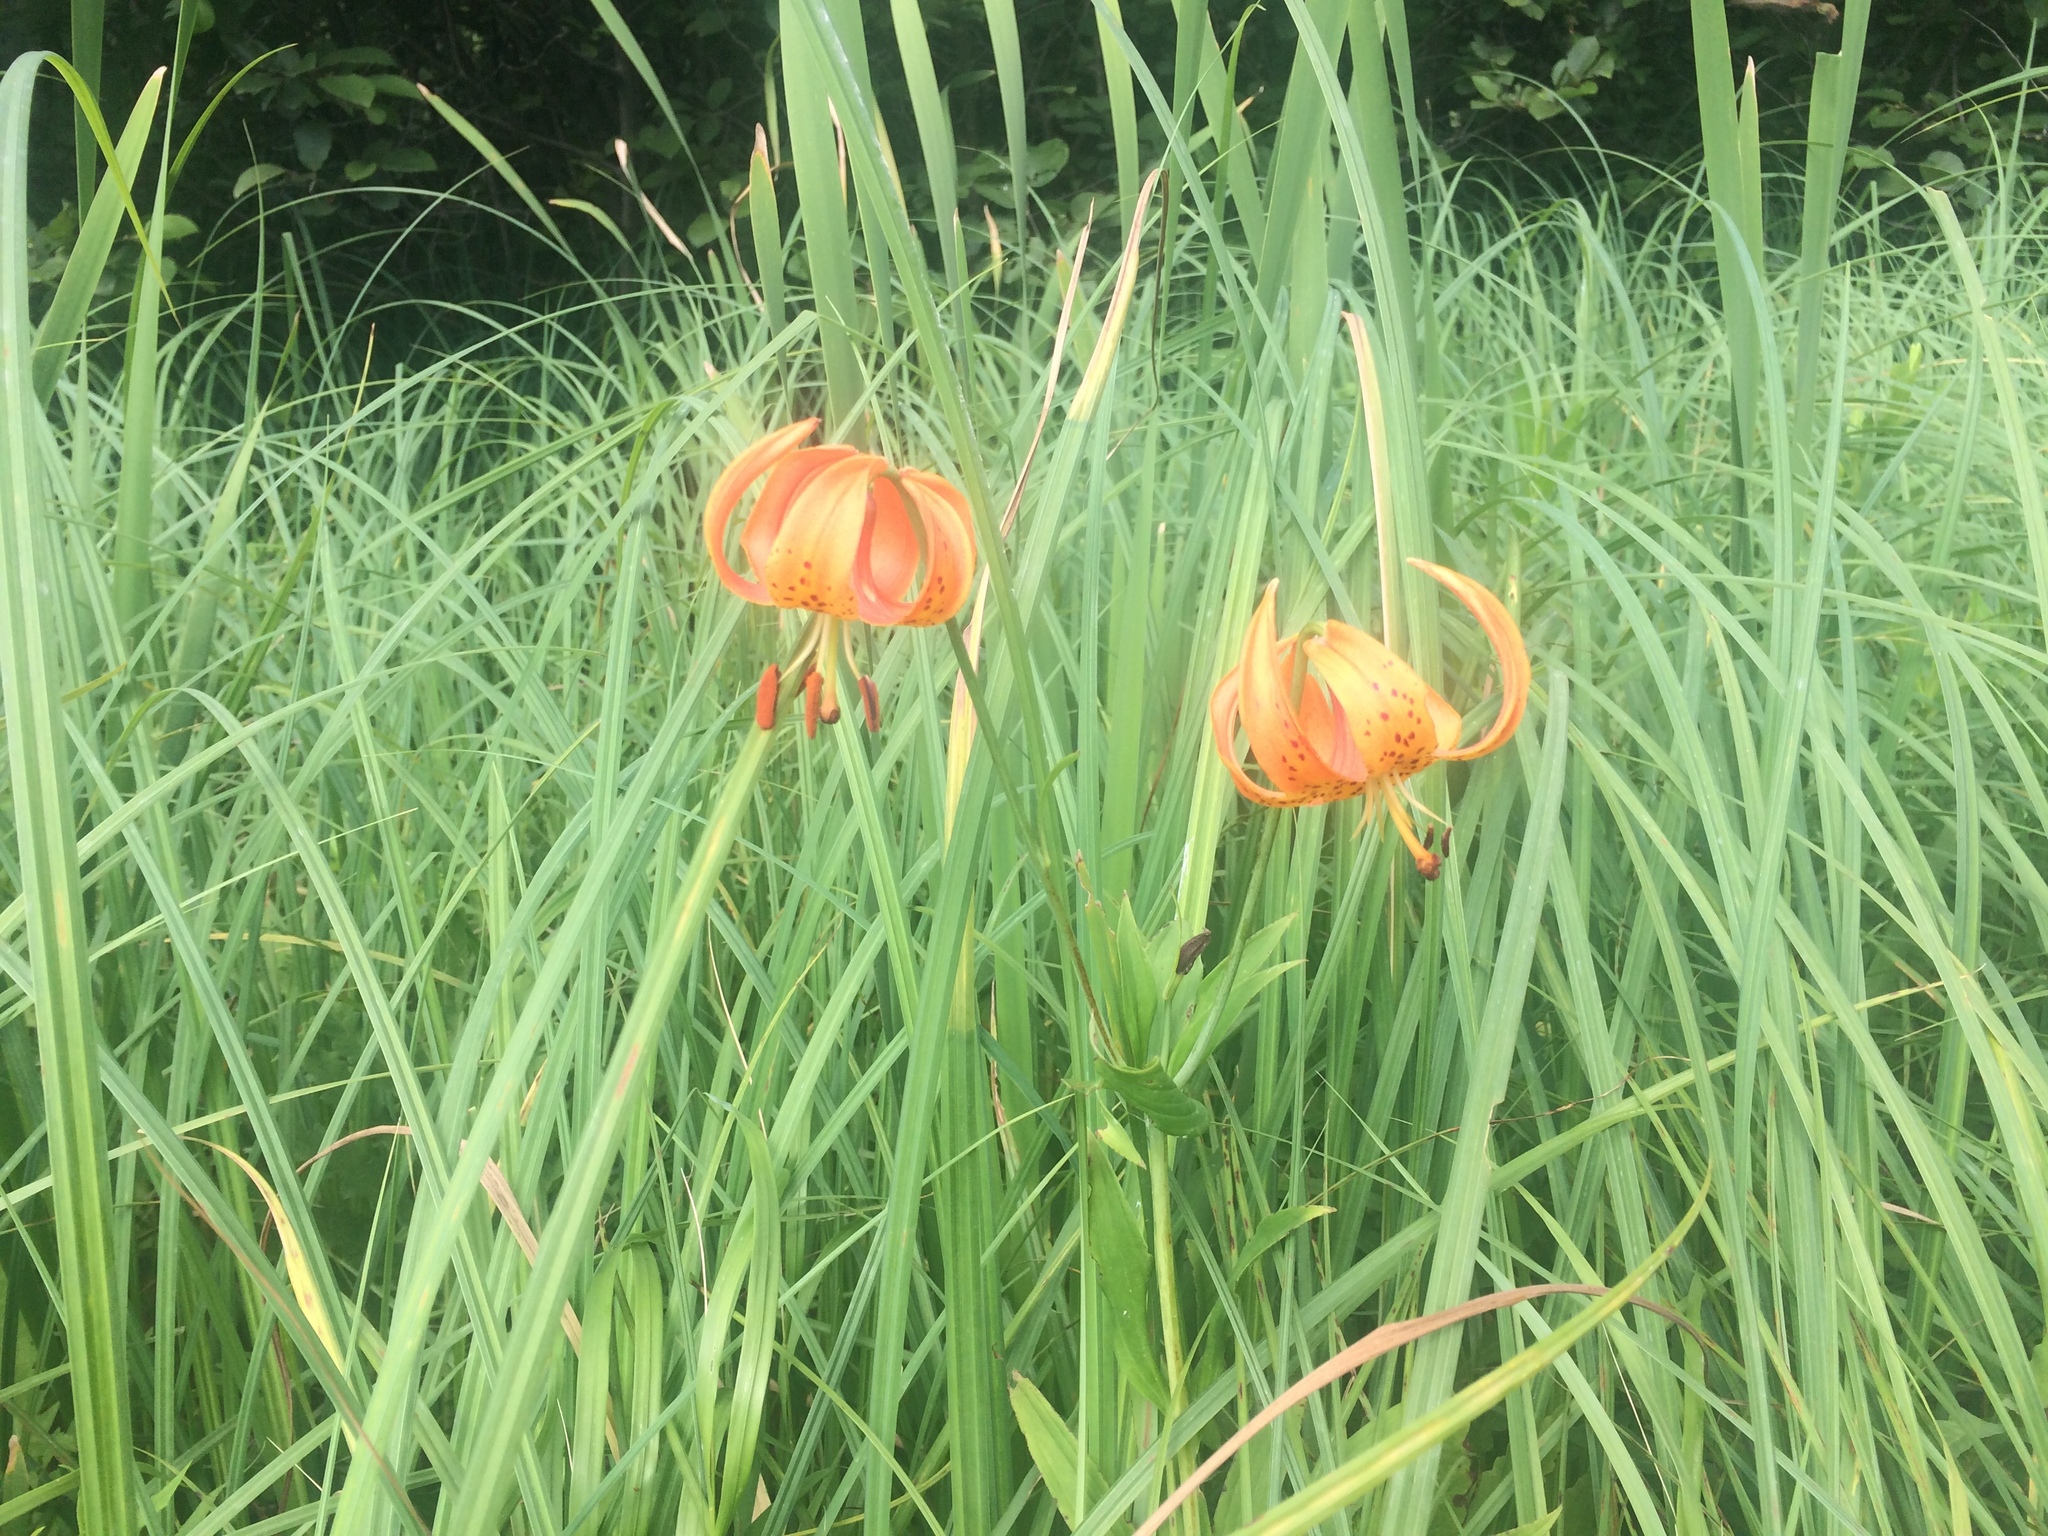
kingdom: Plantae
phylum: Tracheophyta
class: Liliopsida
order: Liliales
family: Liliaceae
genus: Lilium
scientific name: Lilium michiganense
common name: Michigan lily
